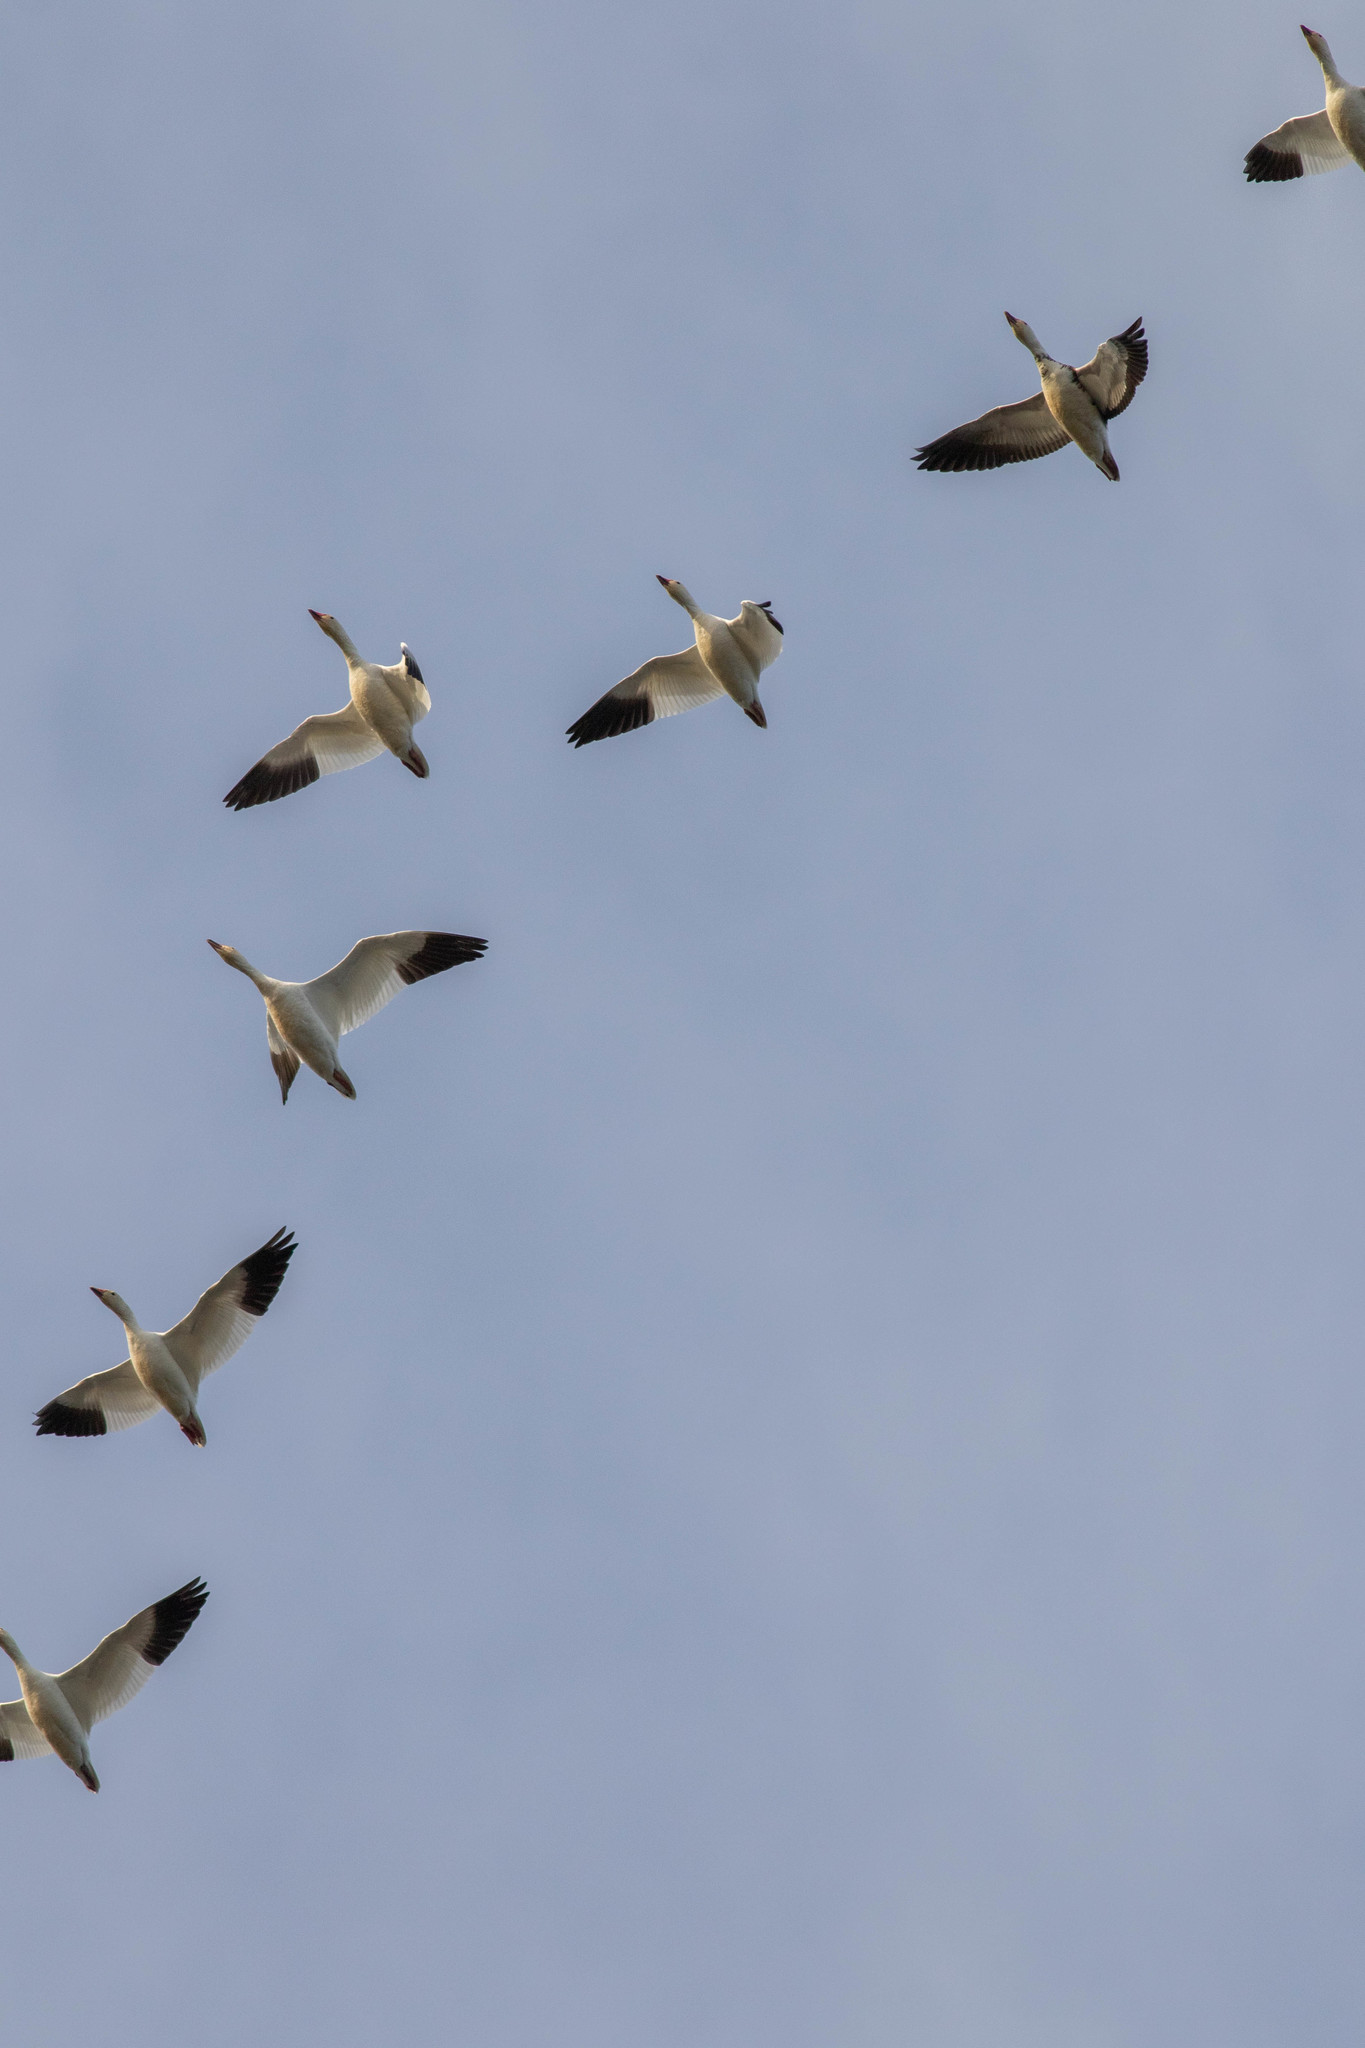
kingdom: Animalia
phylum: Chordata
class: Aves
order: Anseriformes
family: Anatidae
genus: Anser
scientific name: Anser caerulescens
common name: Snow goose
